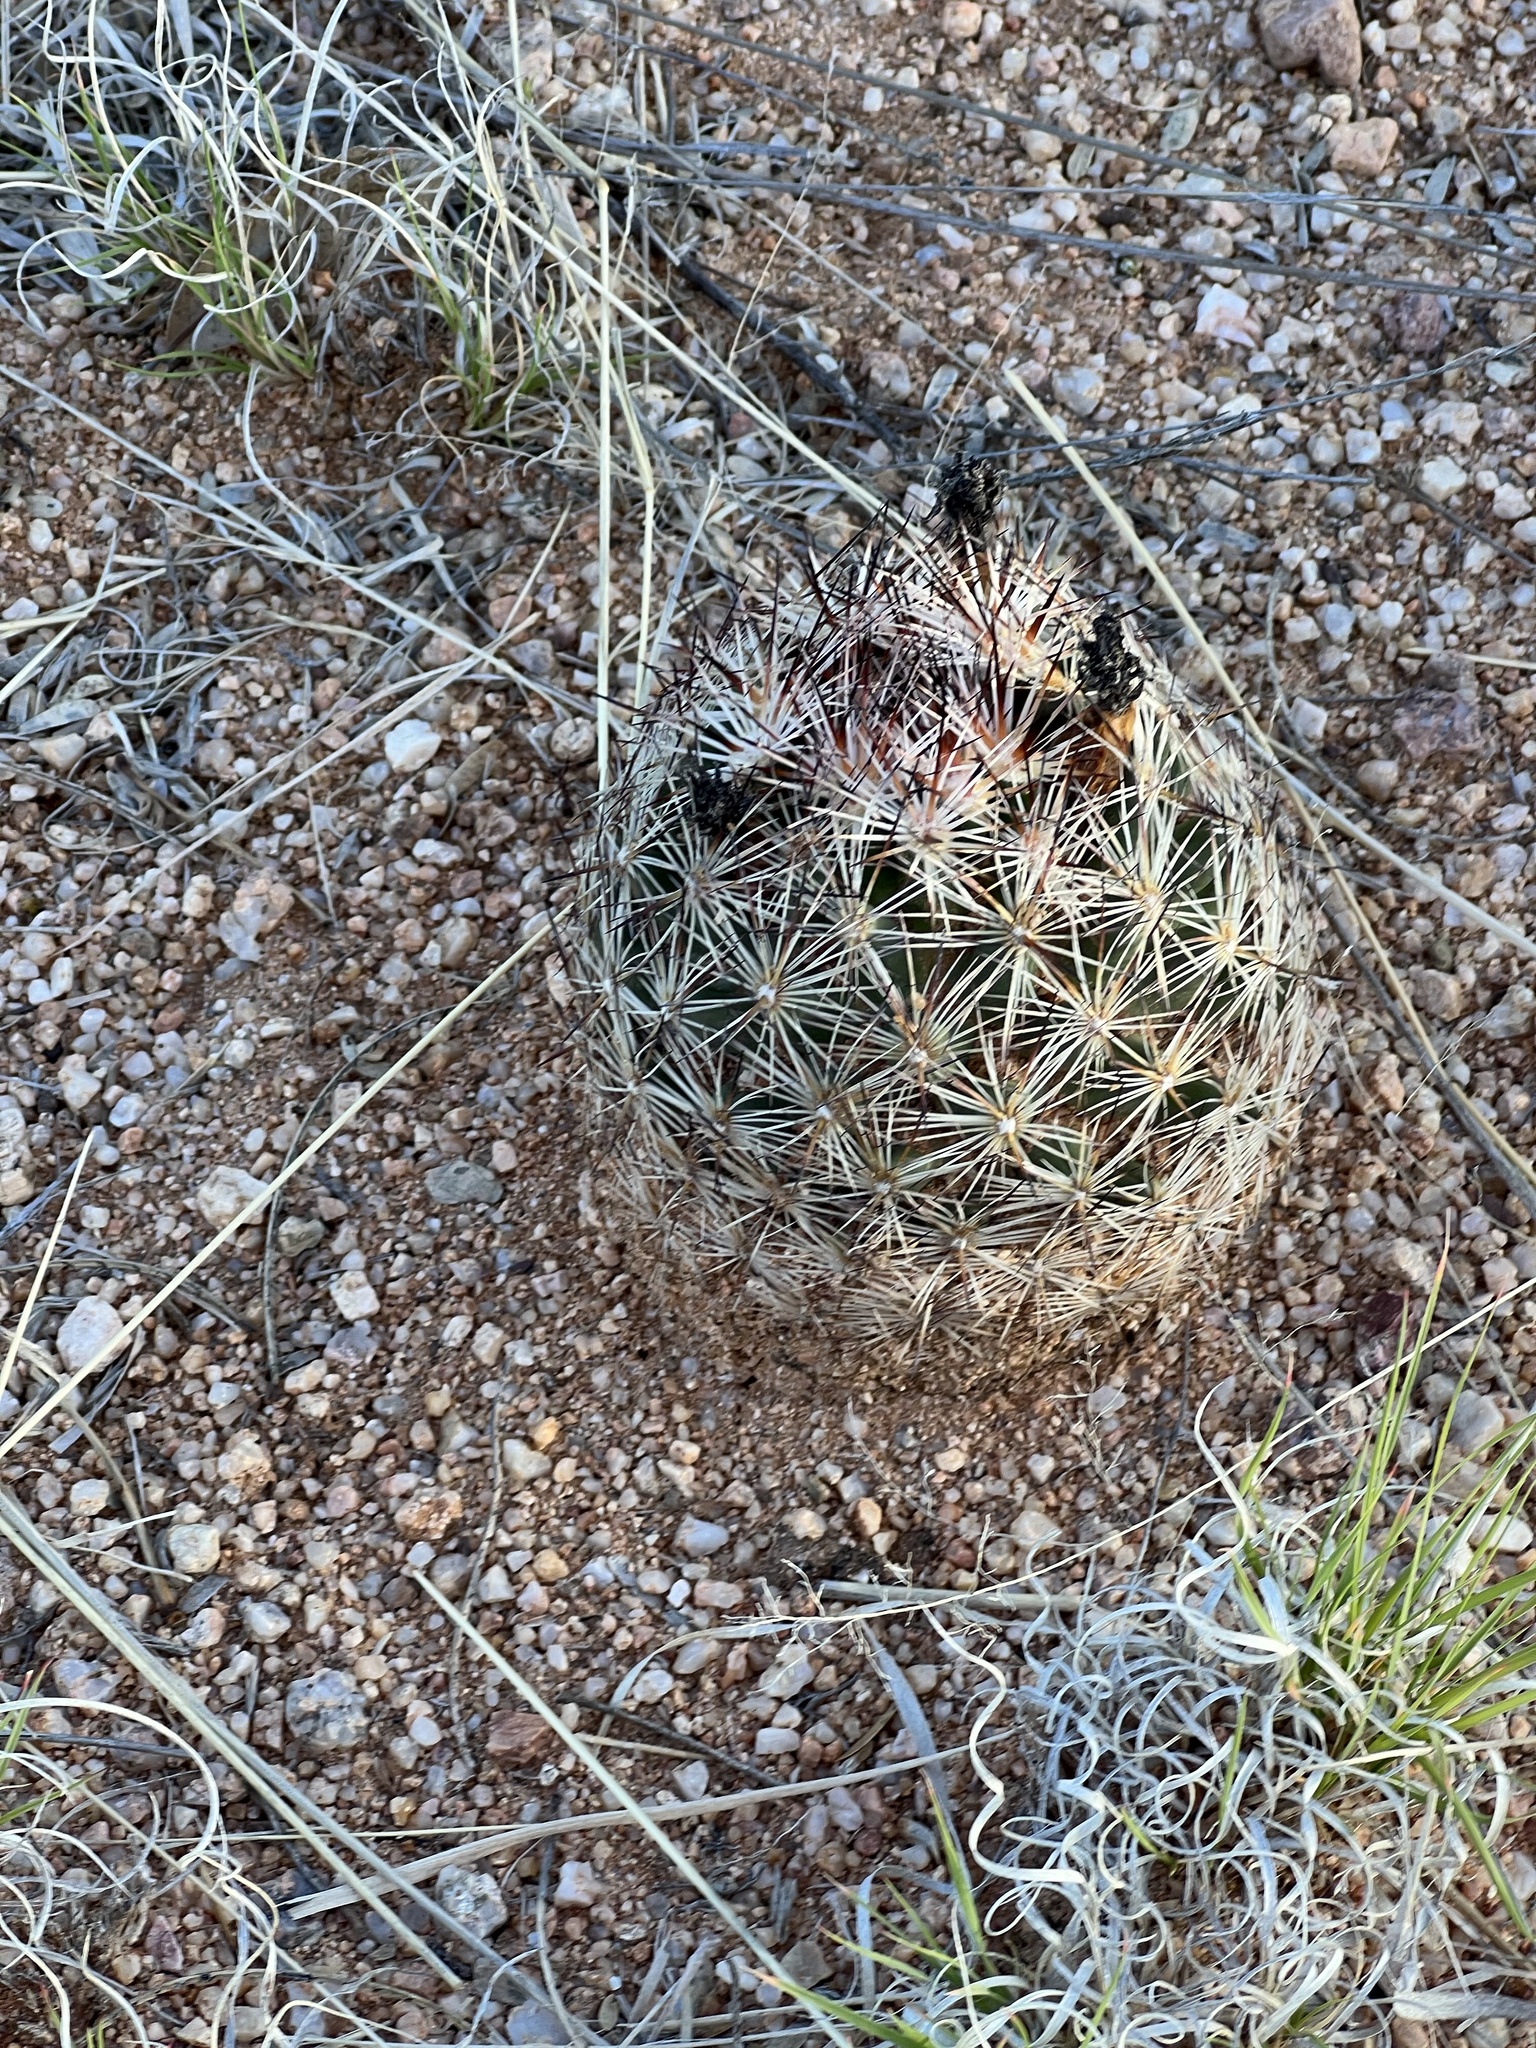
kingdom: Plantae
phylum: Tracheophyta
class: Magnoliopsida
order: Caryophyllales
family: Cactaceae
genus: Pelecyphora
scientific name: Pelecyphora vivipara
